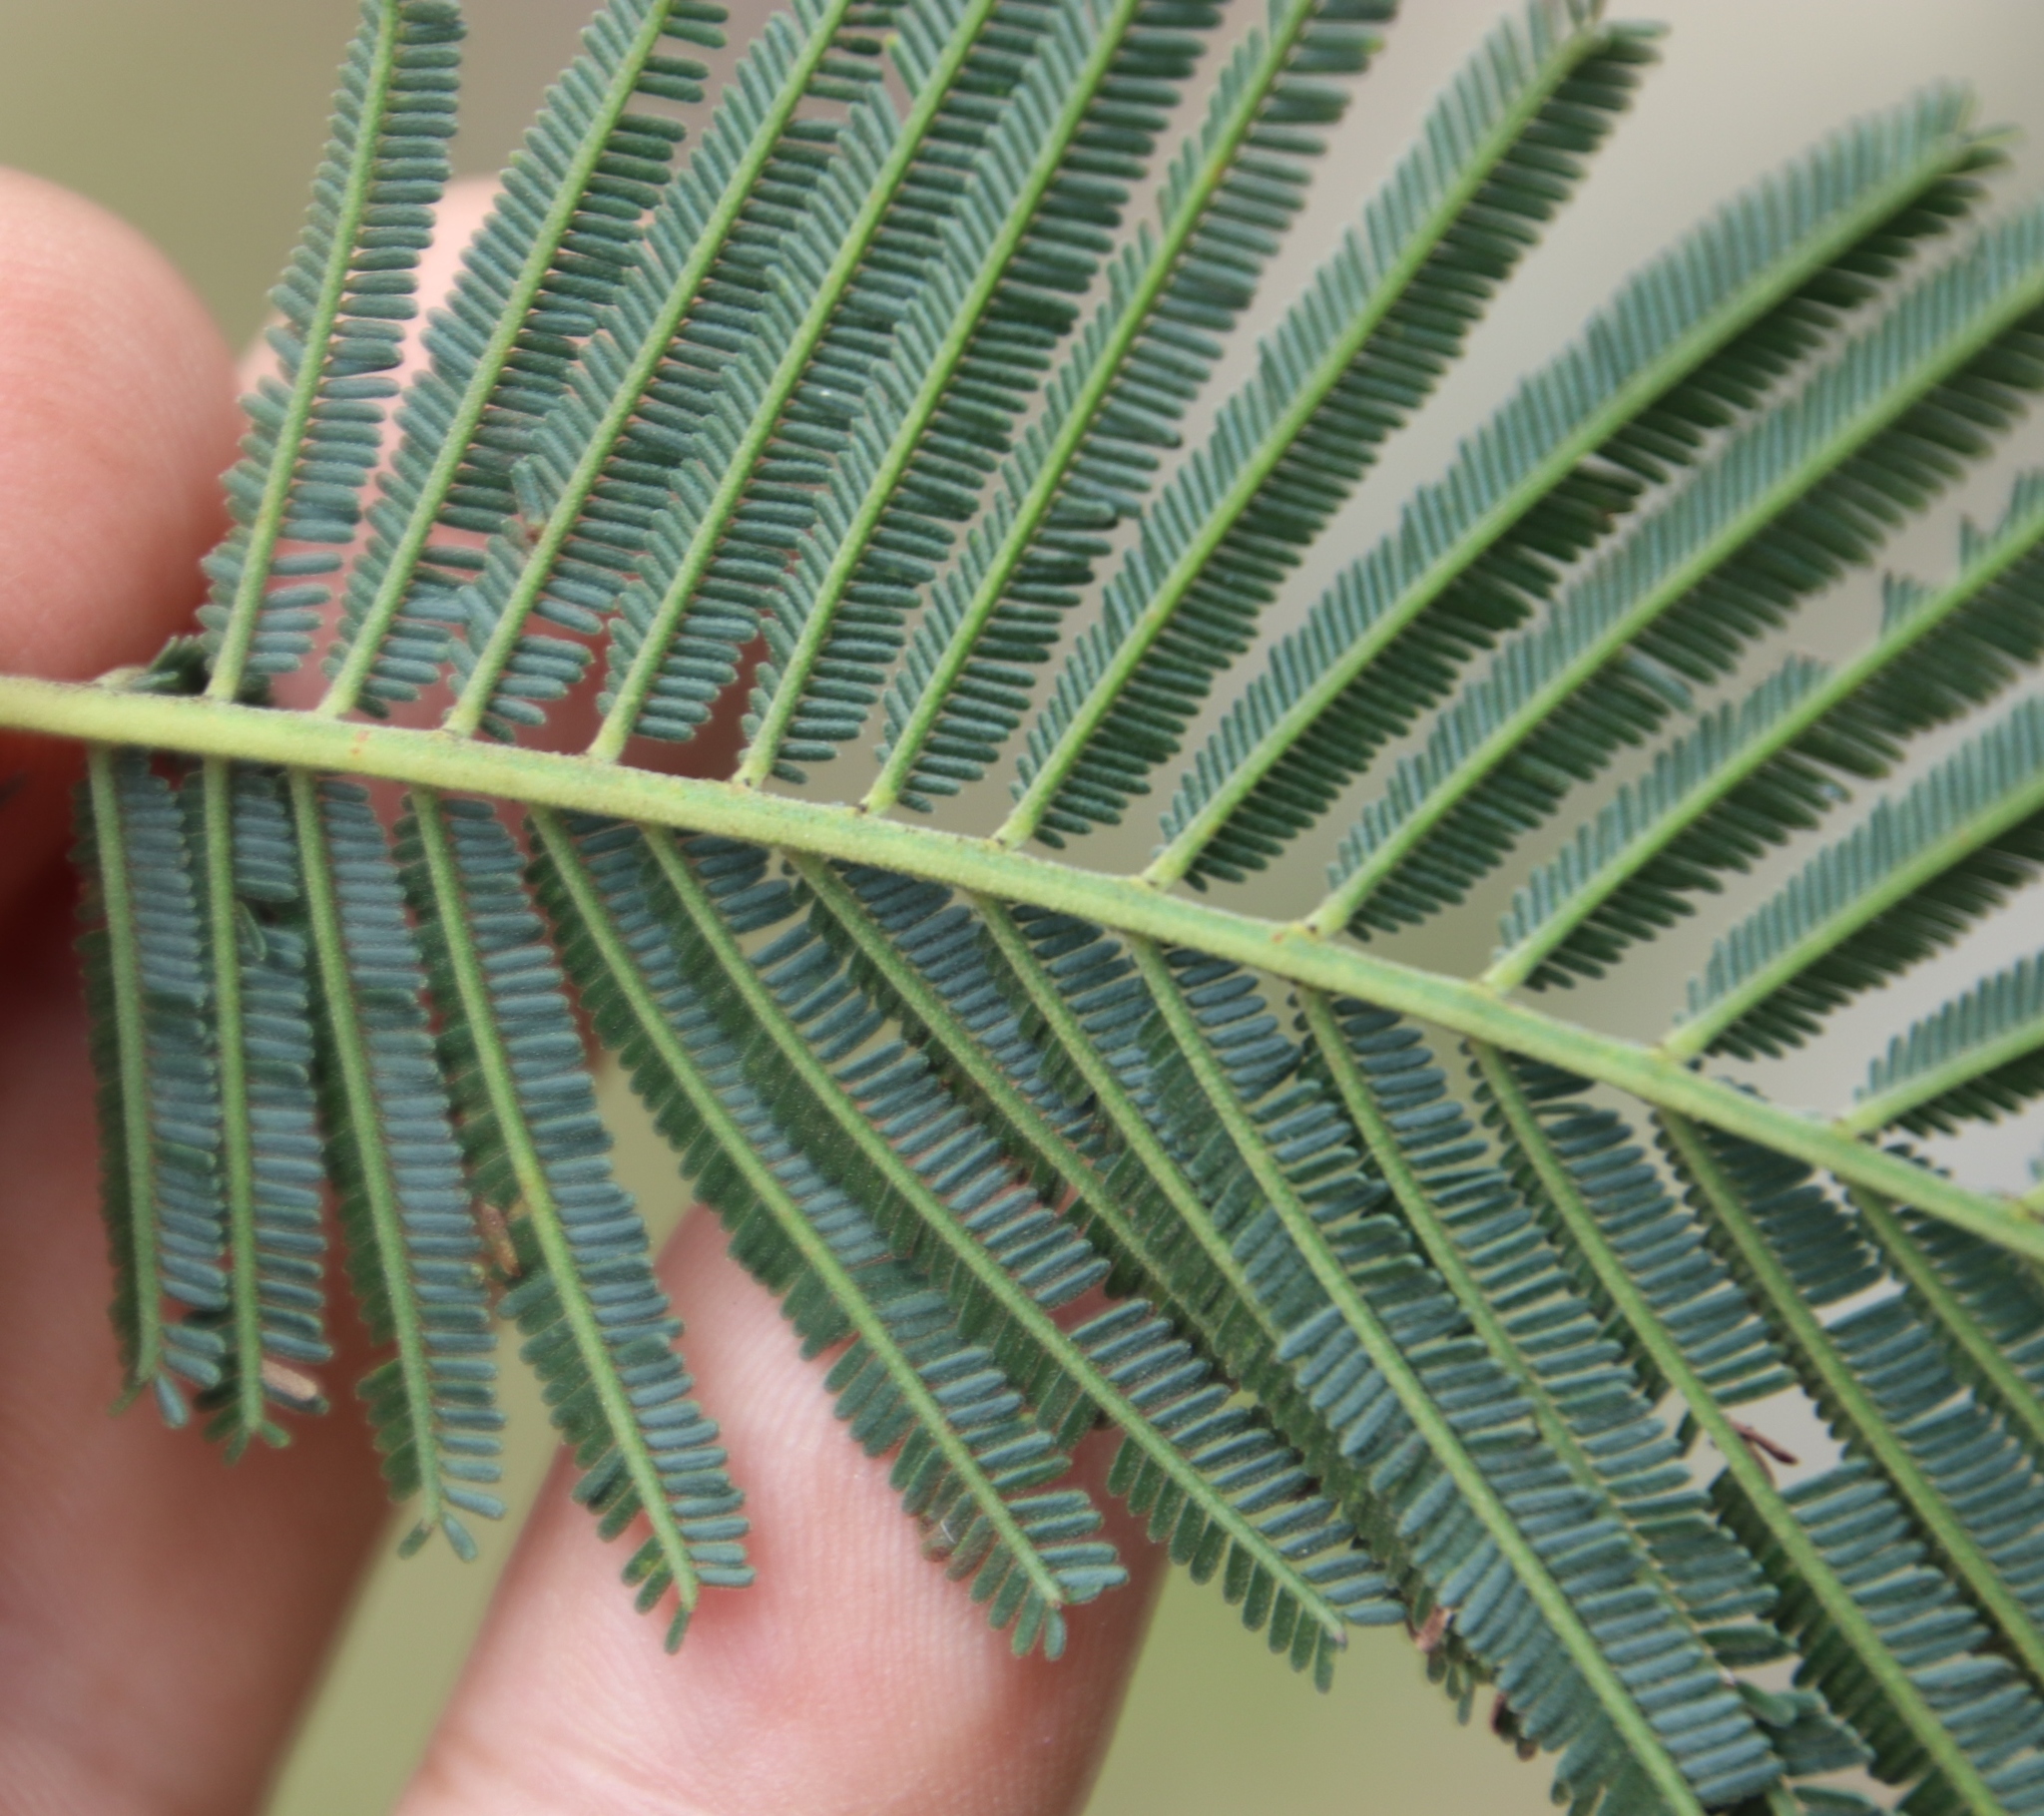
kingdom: Plantae
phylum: Tracheophyta
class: Magnoliopsida
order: Fabales
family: Fabaceae
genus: Acacia
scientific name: Acacia mearnsii
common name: Black wattle
